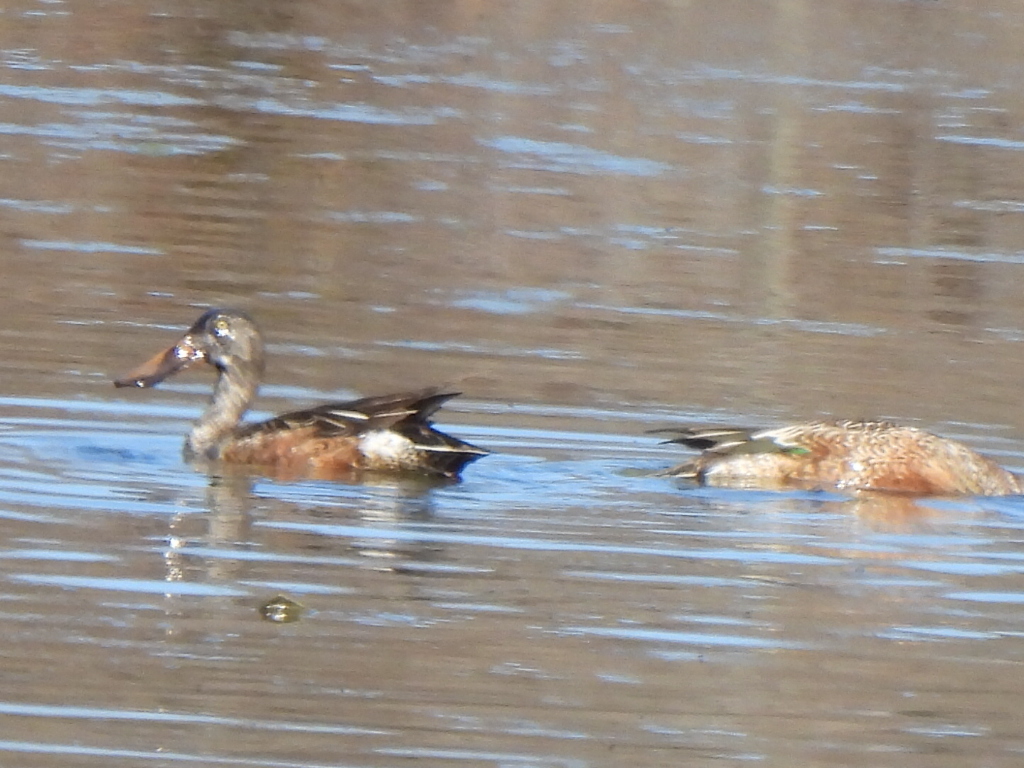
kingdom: Animalia
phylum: Chordata
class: Aves
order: Anseriformes
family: Anatidae
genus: Spatula
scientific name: Spatula clypeata
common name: Northern shoveler
